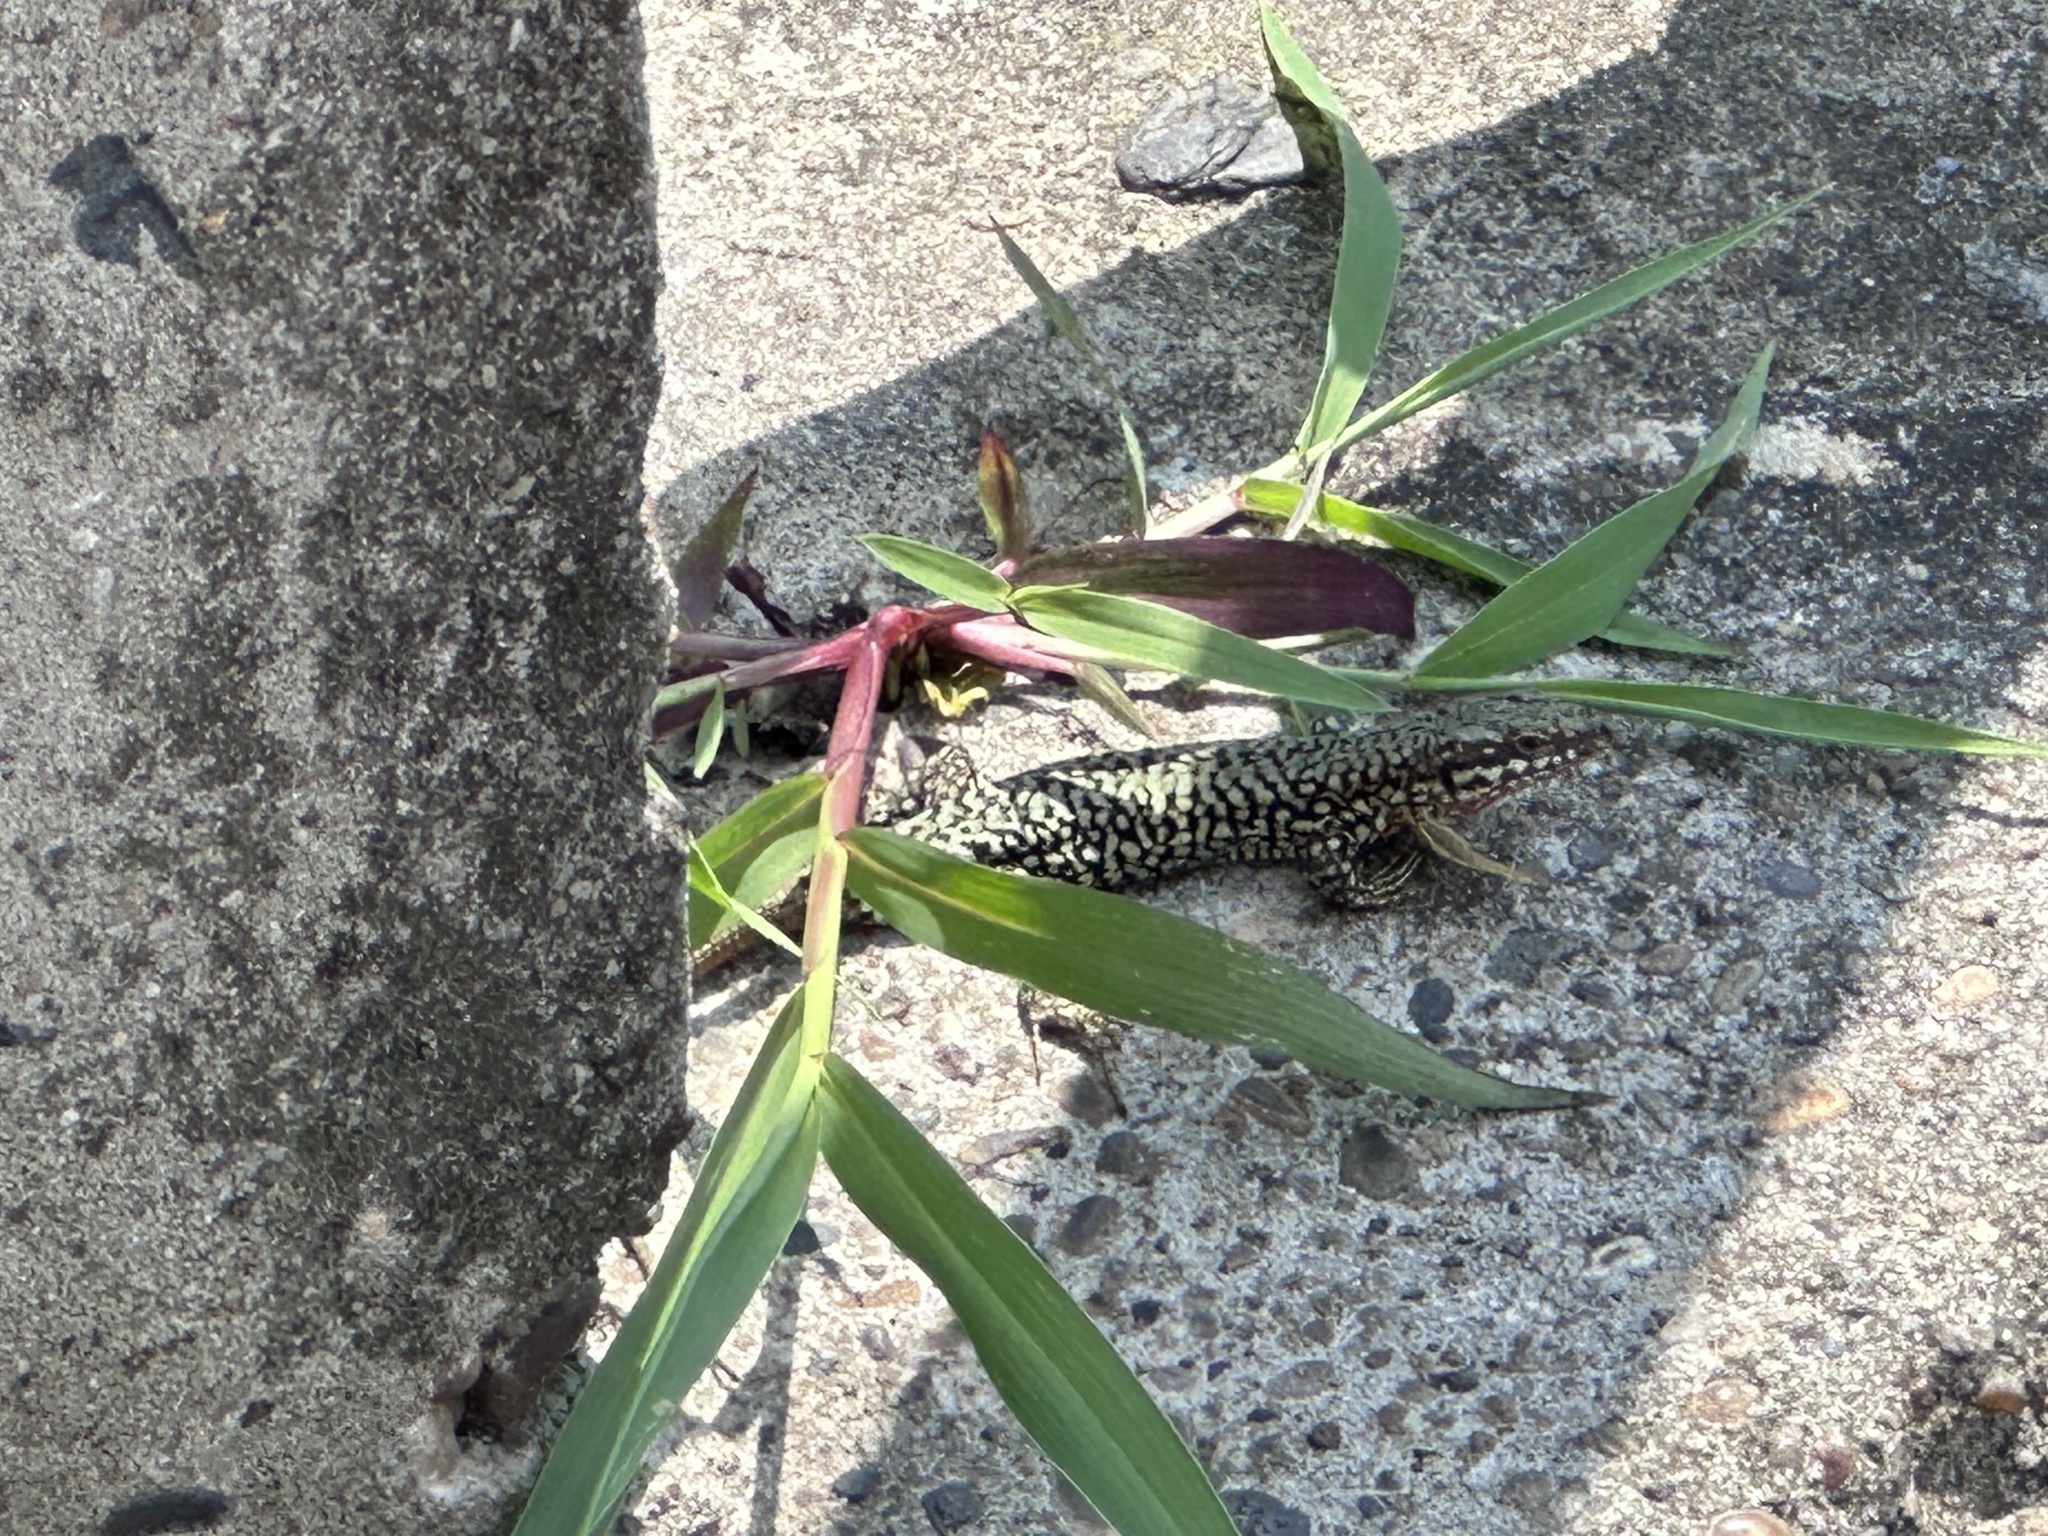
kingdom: Animalia
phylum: Chordata
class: Squamata
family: Lacertidae
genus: Podarcis
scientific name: Podarcis muralis
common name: Common wall lizard
